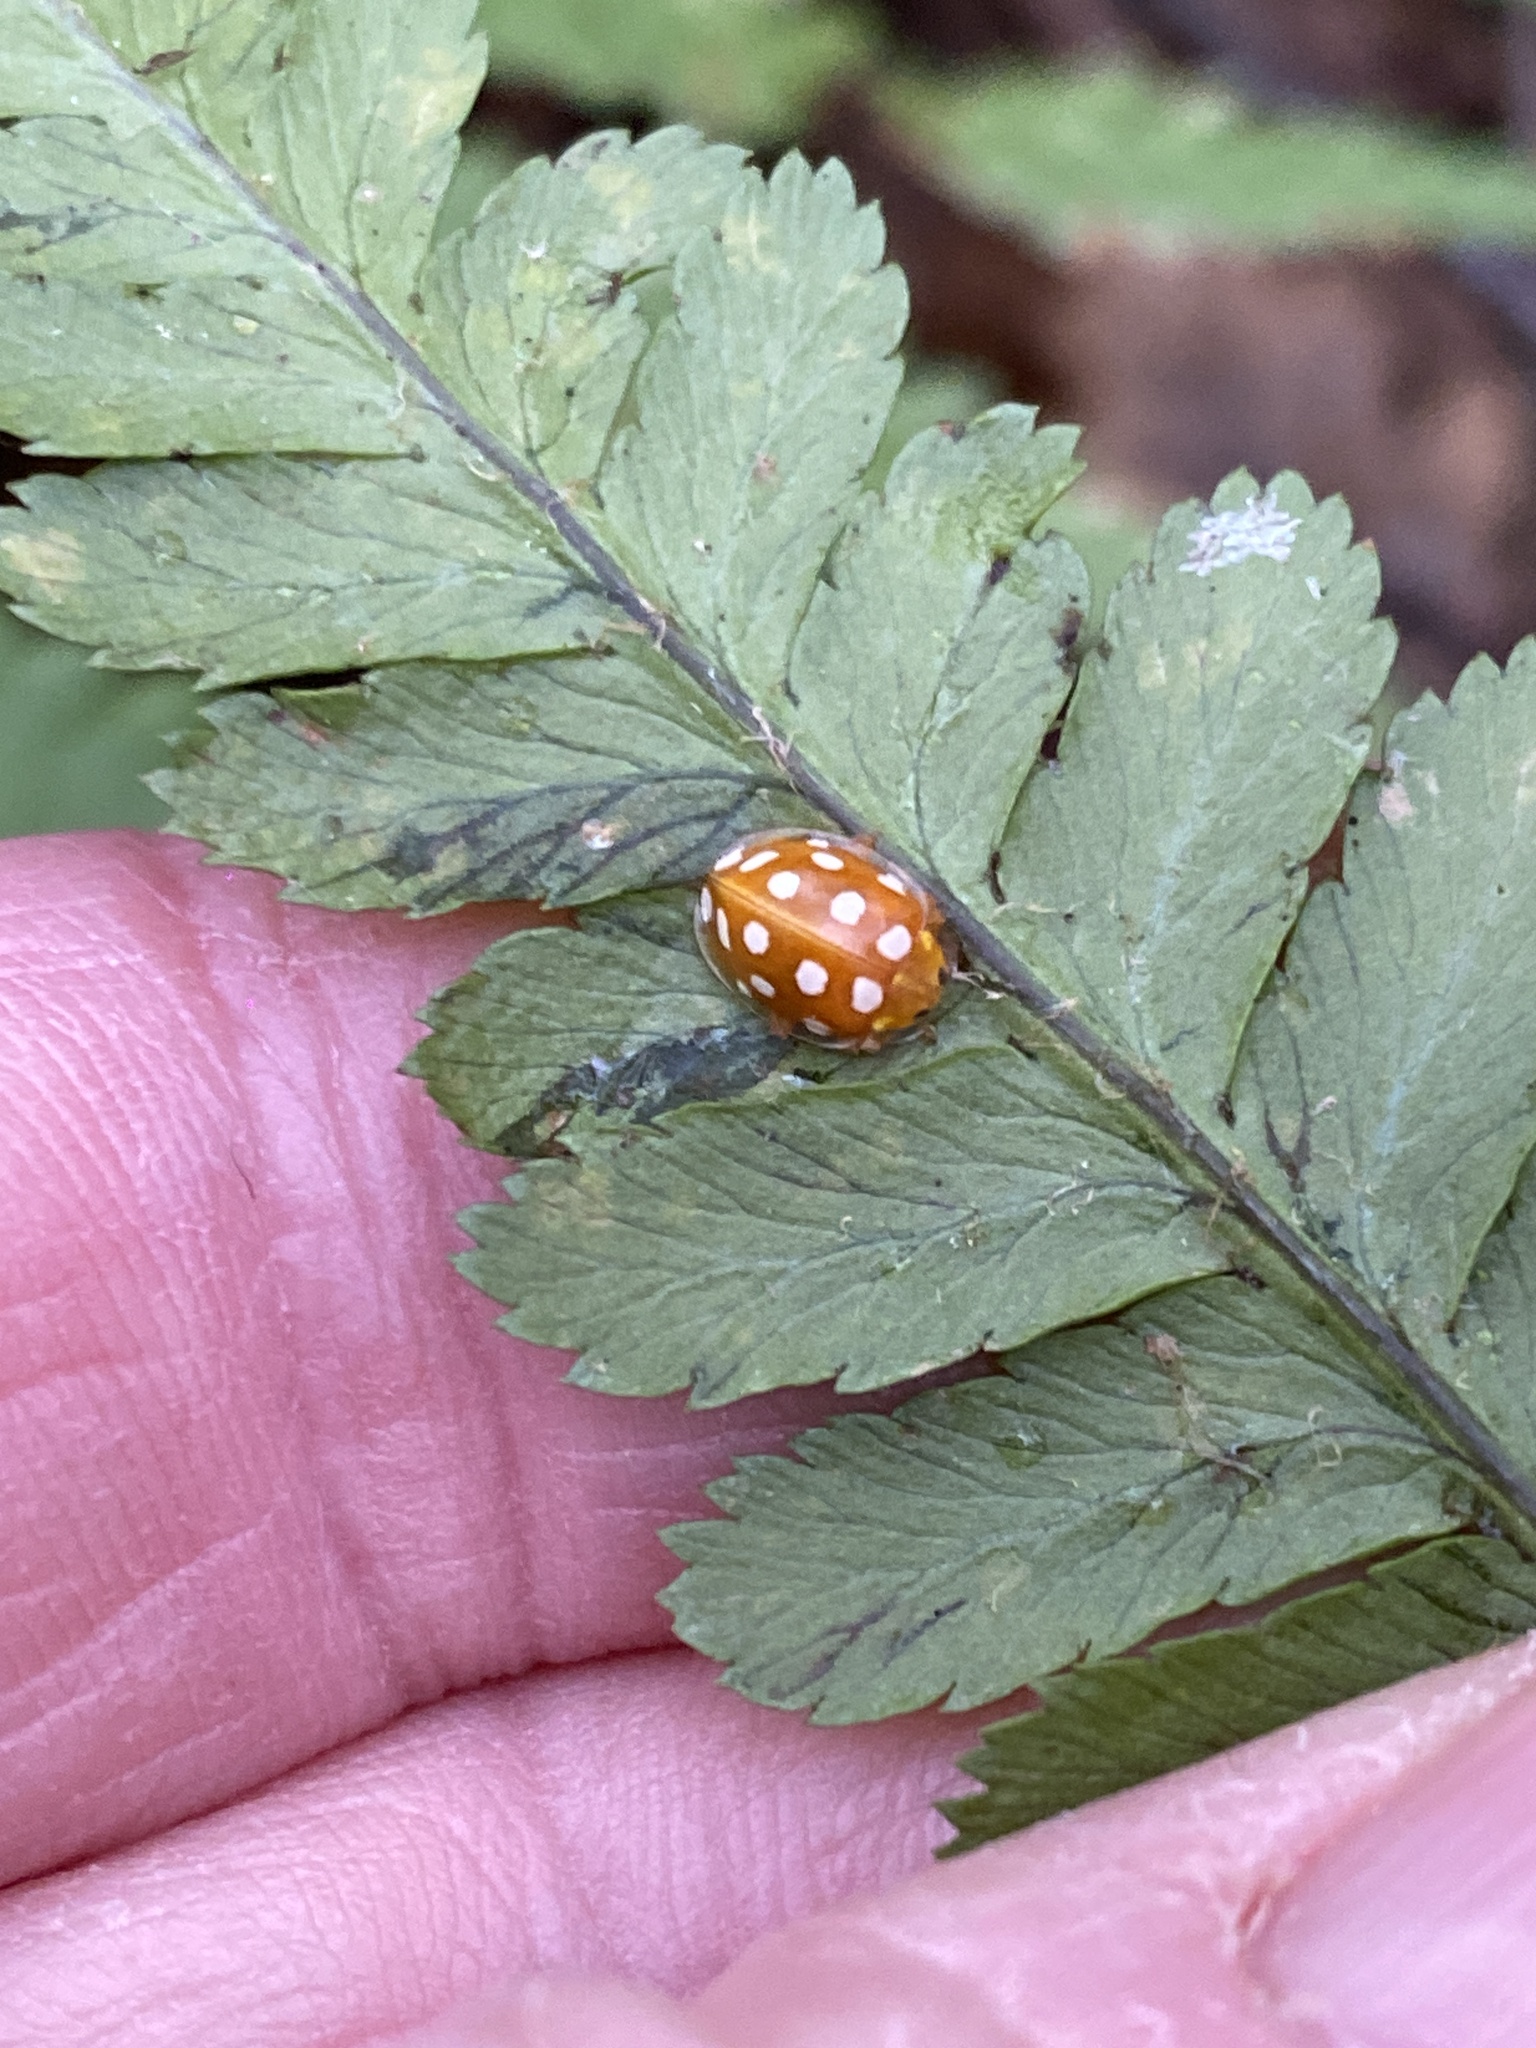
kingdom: Animalia
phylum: Arthropoda
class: Insecta
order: Coleoptera
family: Coccinellidae
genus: Halyzia
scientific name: Halyzia sedecimguttata
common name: Orange ladybird
